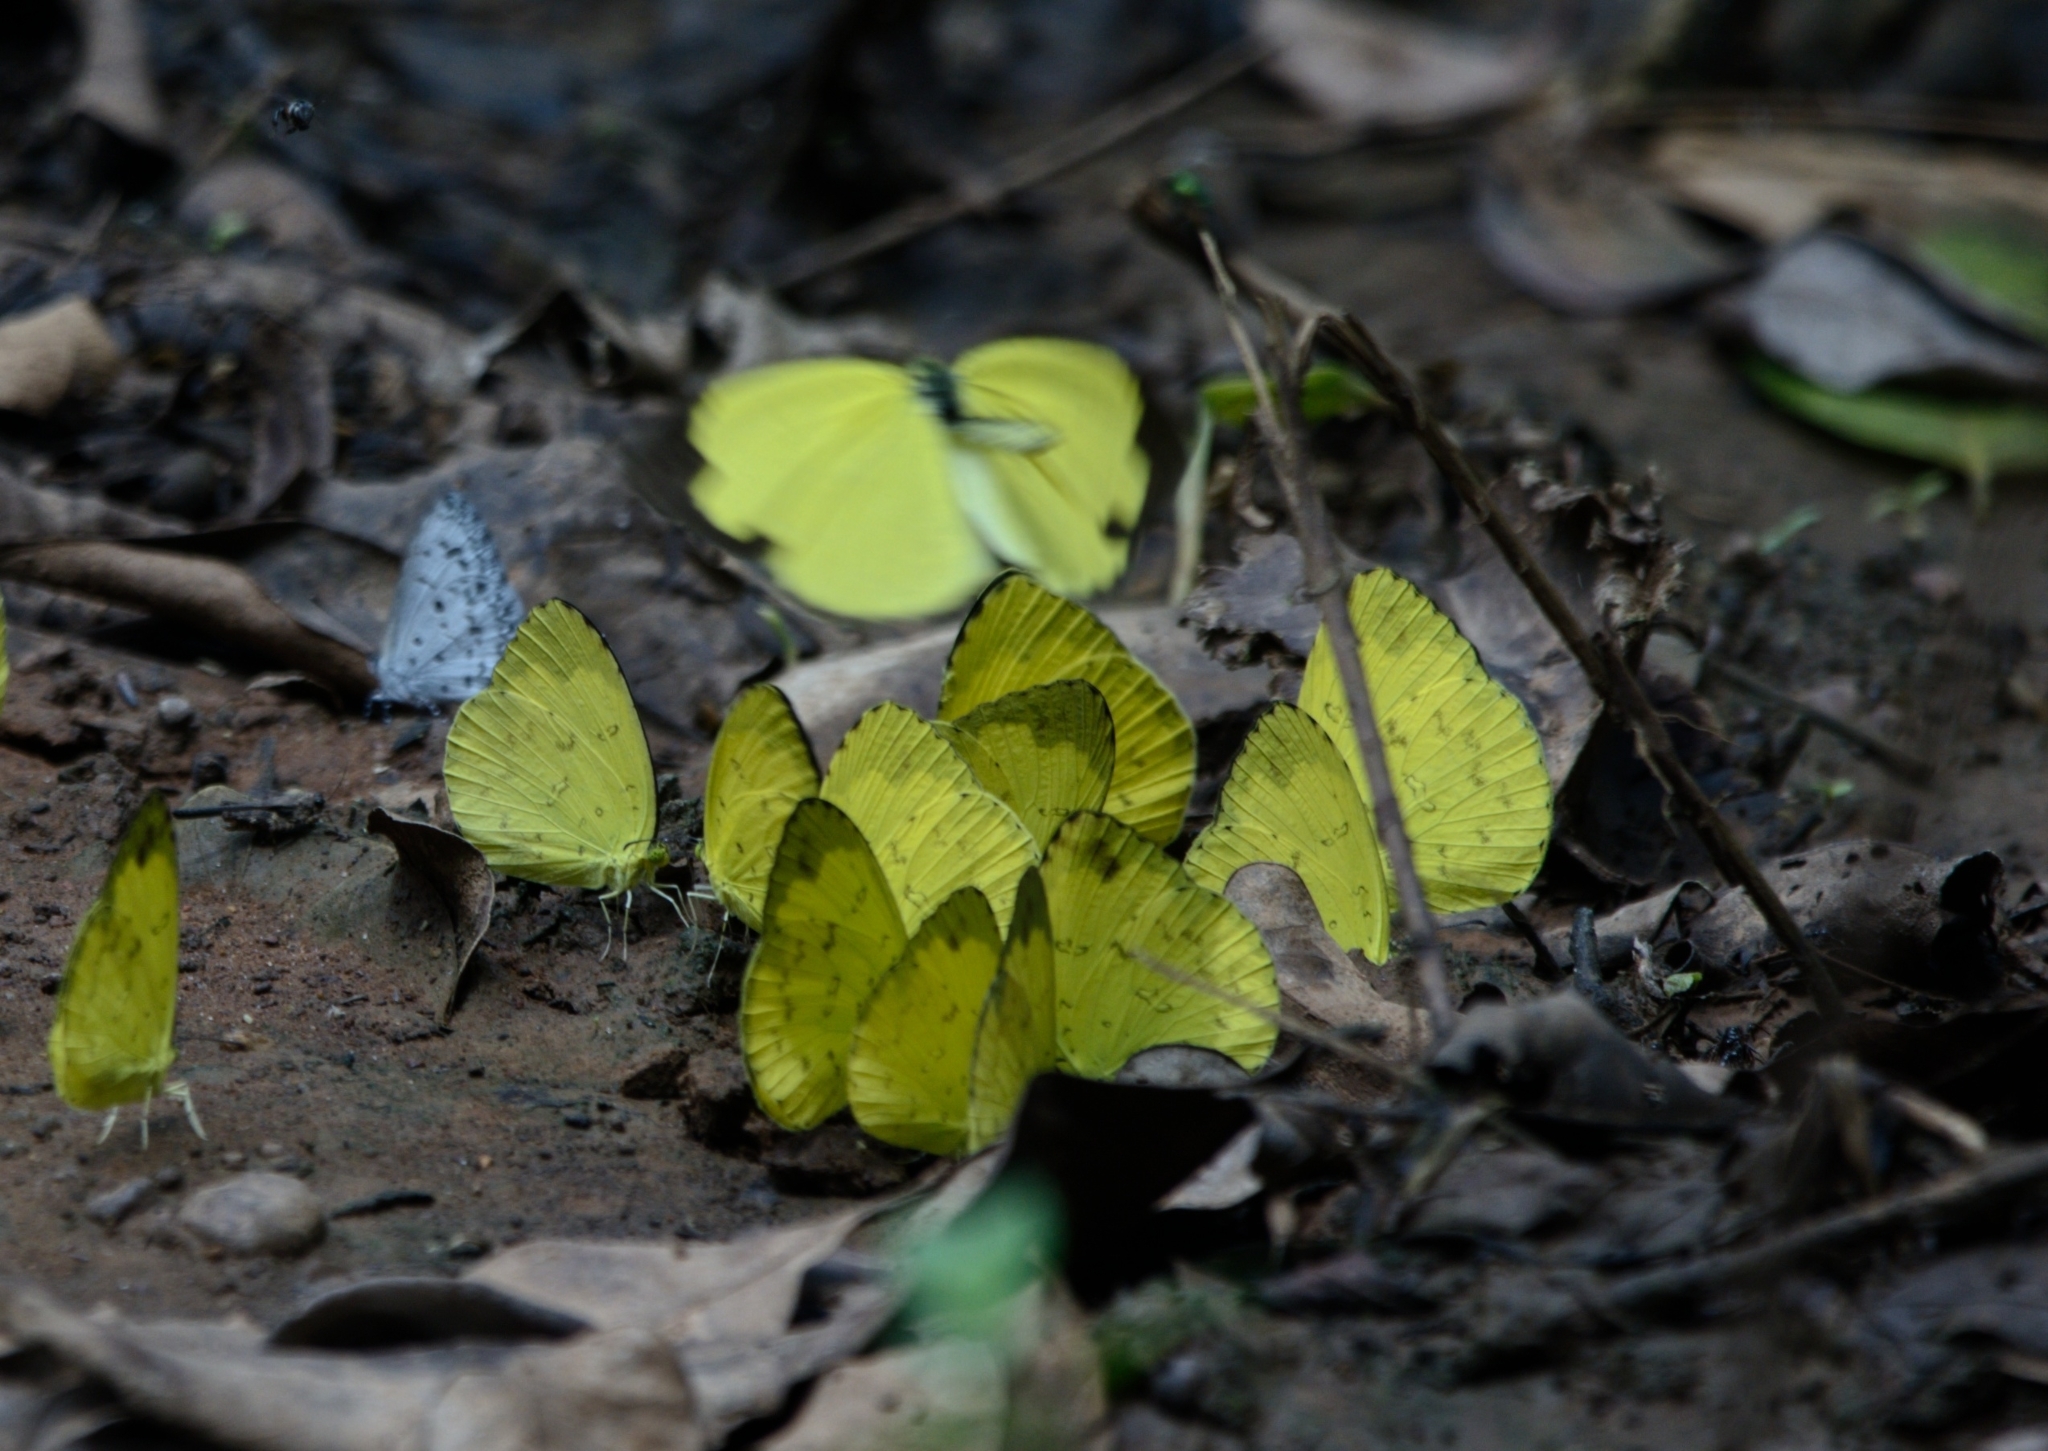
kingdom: Animalia
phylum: Arthropoda
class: Insecta
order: Lepidoptera
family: Pieridae
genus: Eurema
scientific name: Eurema blanda
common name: Three-spot grass yellow
